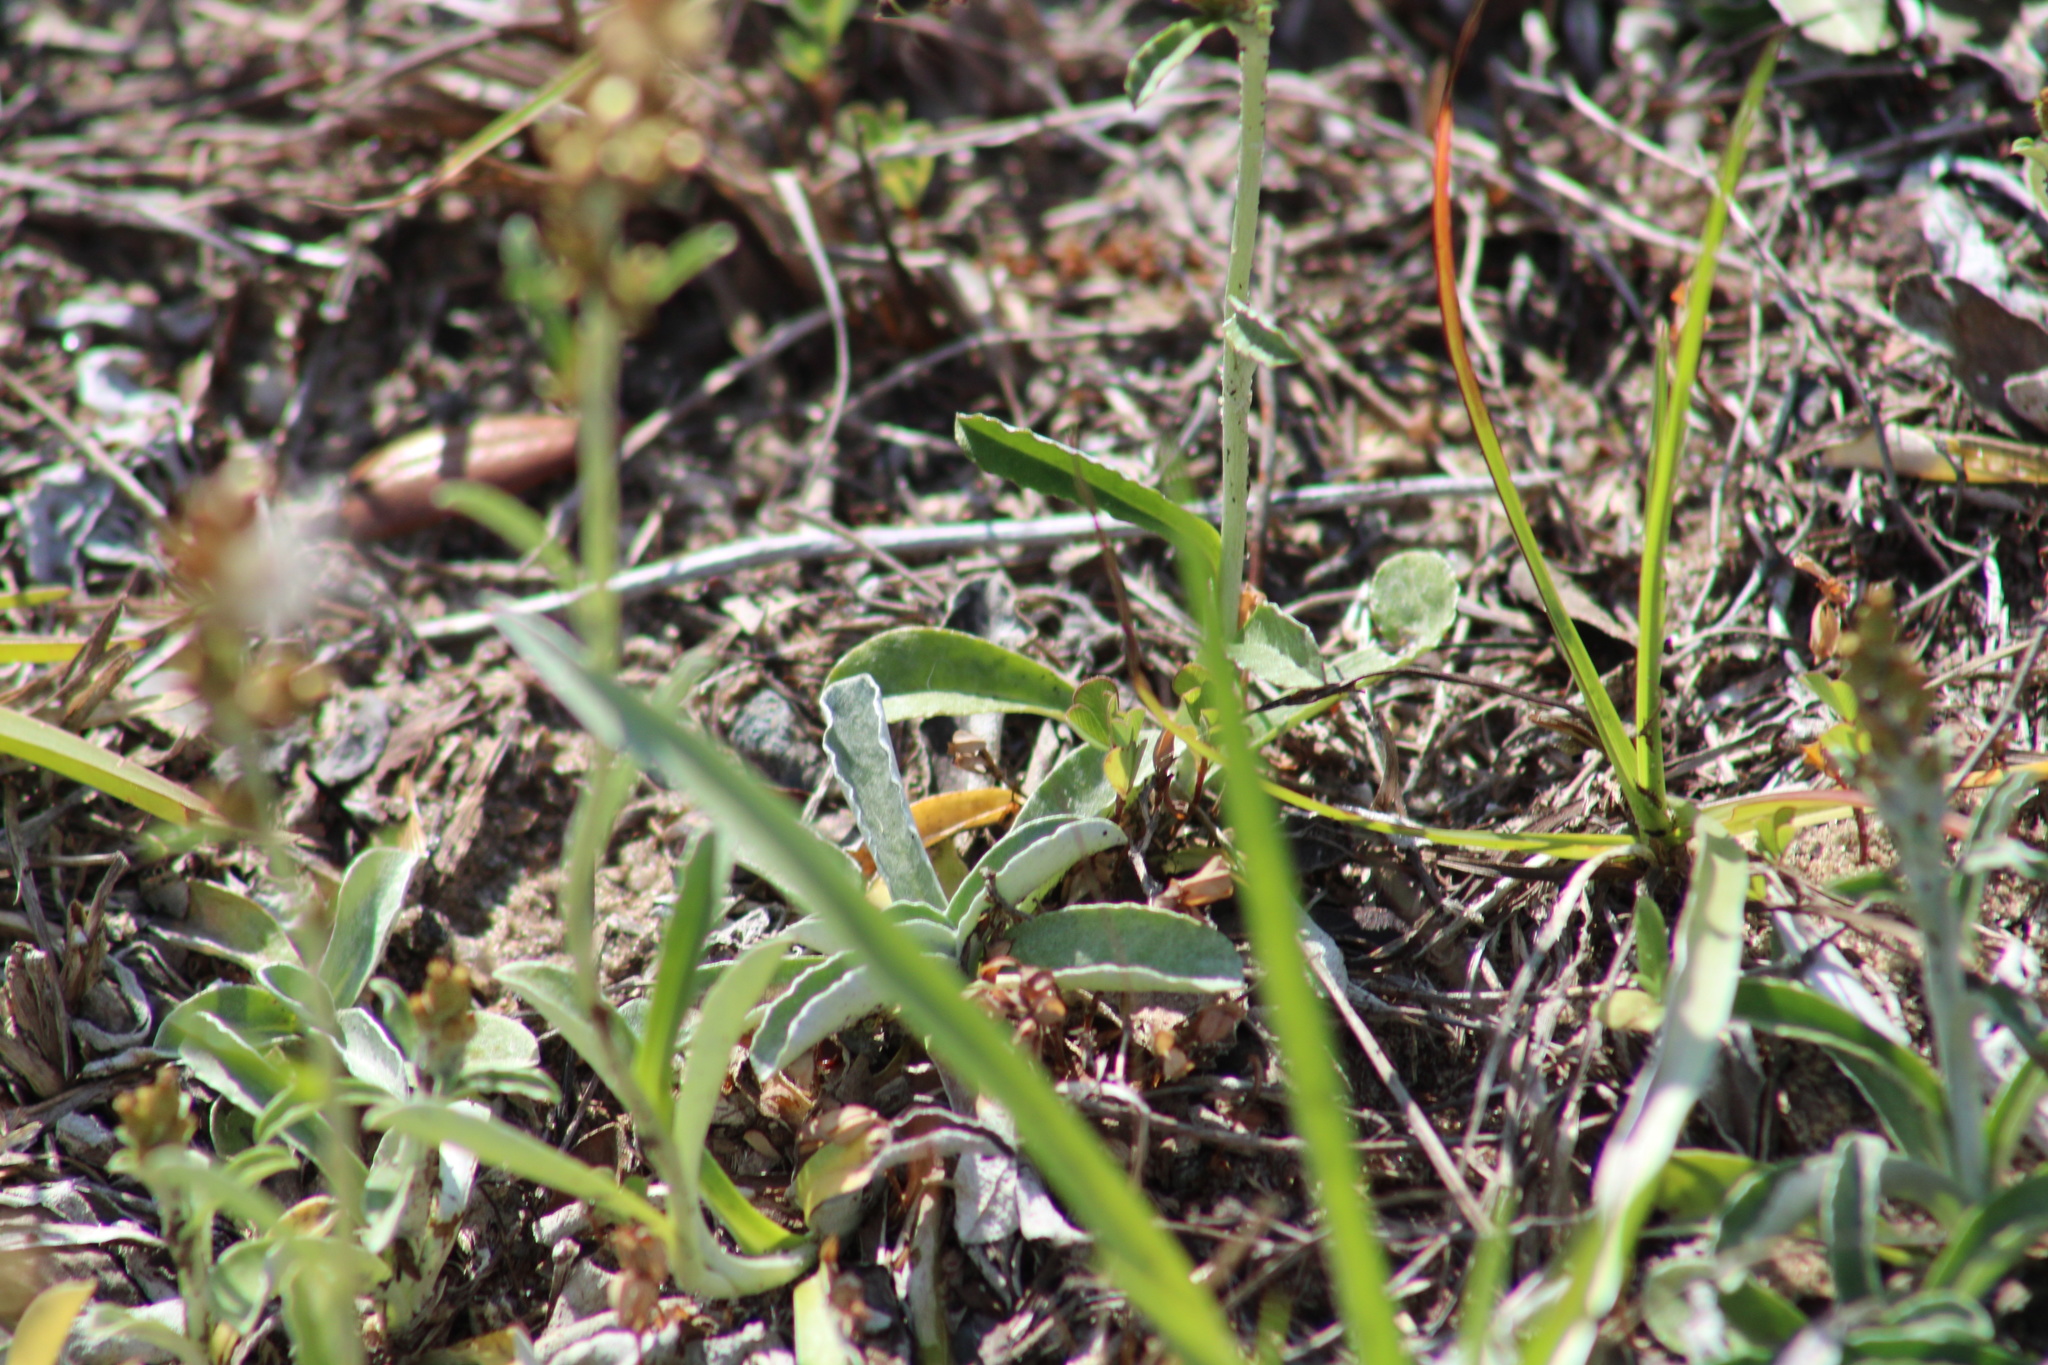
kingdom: Animalia
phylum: Arthropoda
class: Insecta
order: Hymenoptera
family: Eumenidae
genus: Parancistrocerus
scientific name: Parancistrocerus fulvipes
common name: Potter wasp
